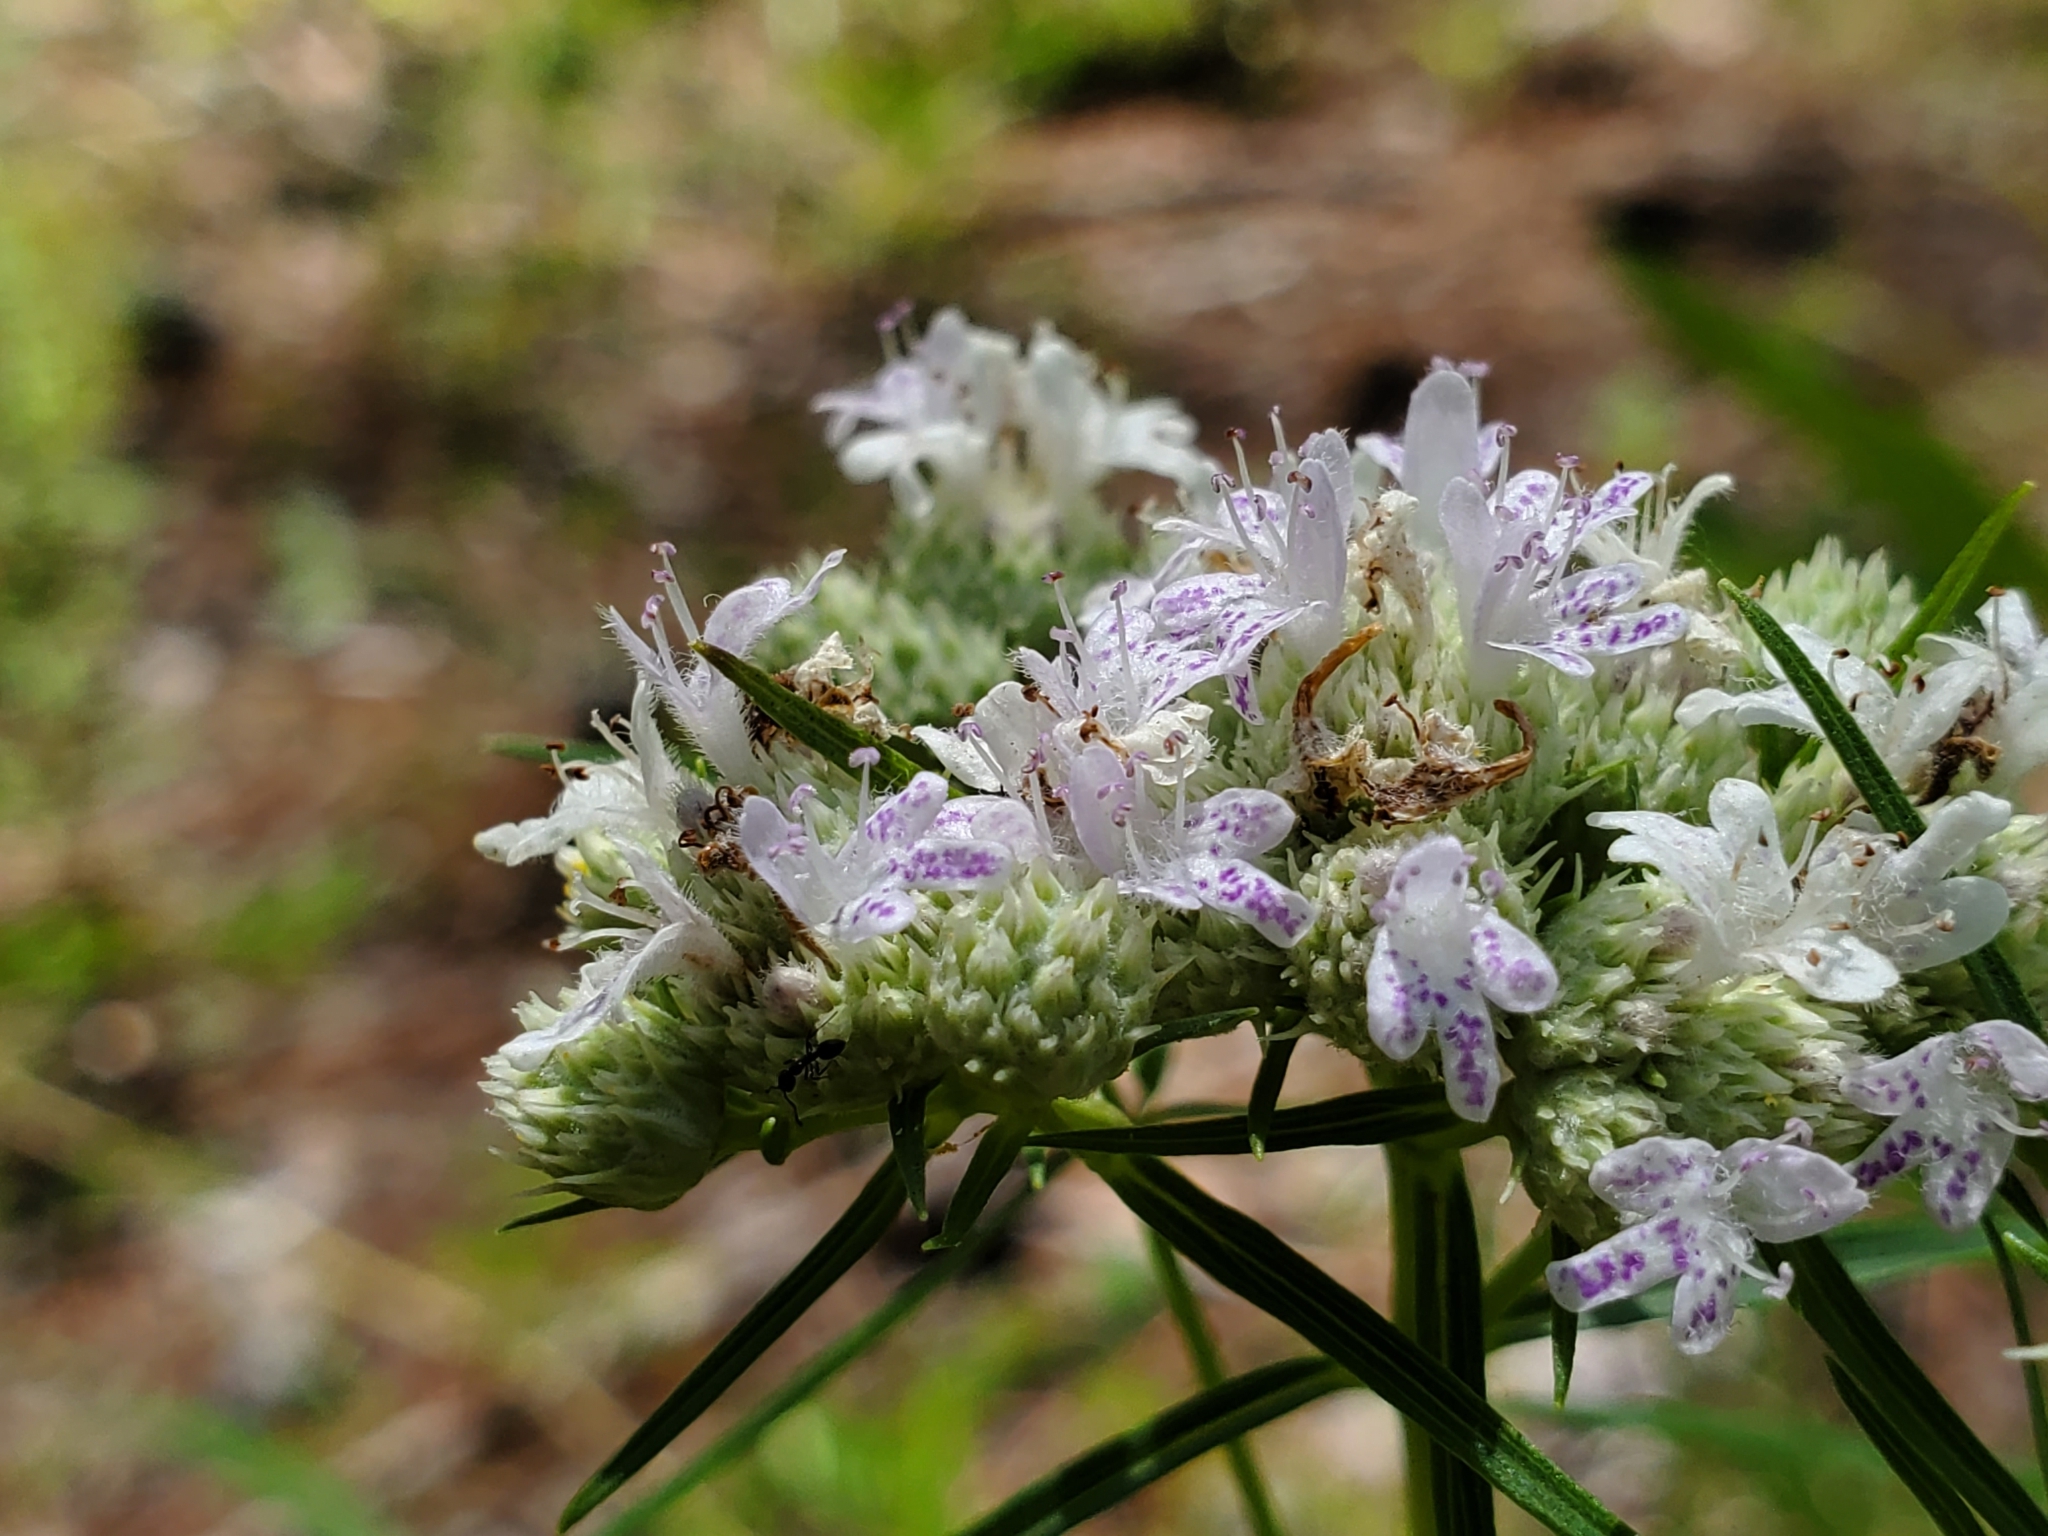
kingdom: Plantae
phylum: Tracheophyta
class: Magnoliopsida
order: Lamiales
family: Lamiaceae
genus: Pycnanthemum
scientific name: Pycnanthemum tenuifolium
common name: Narrow-leaf mountain-mint
